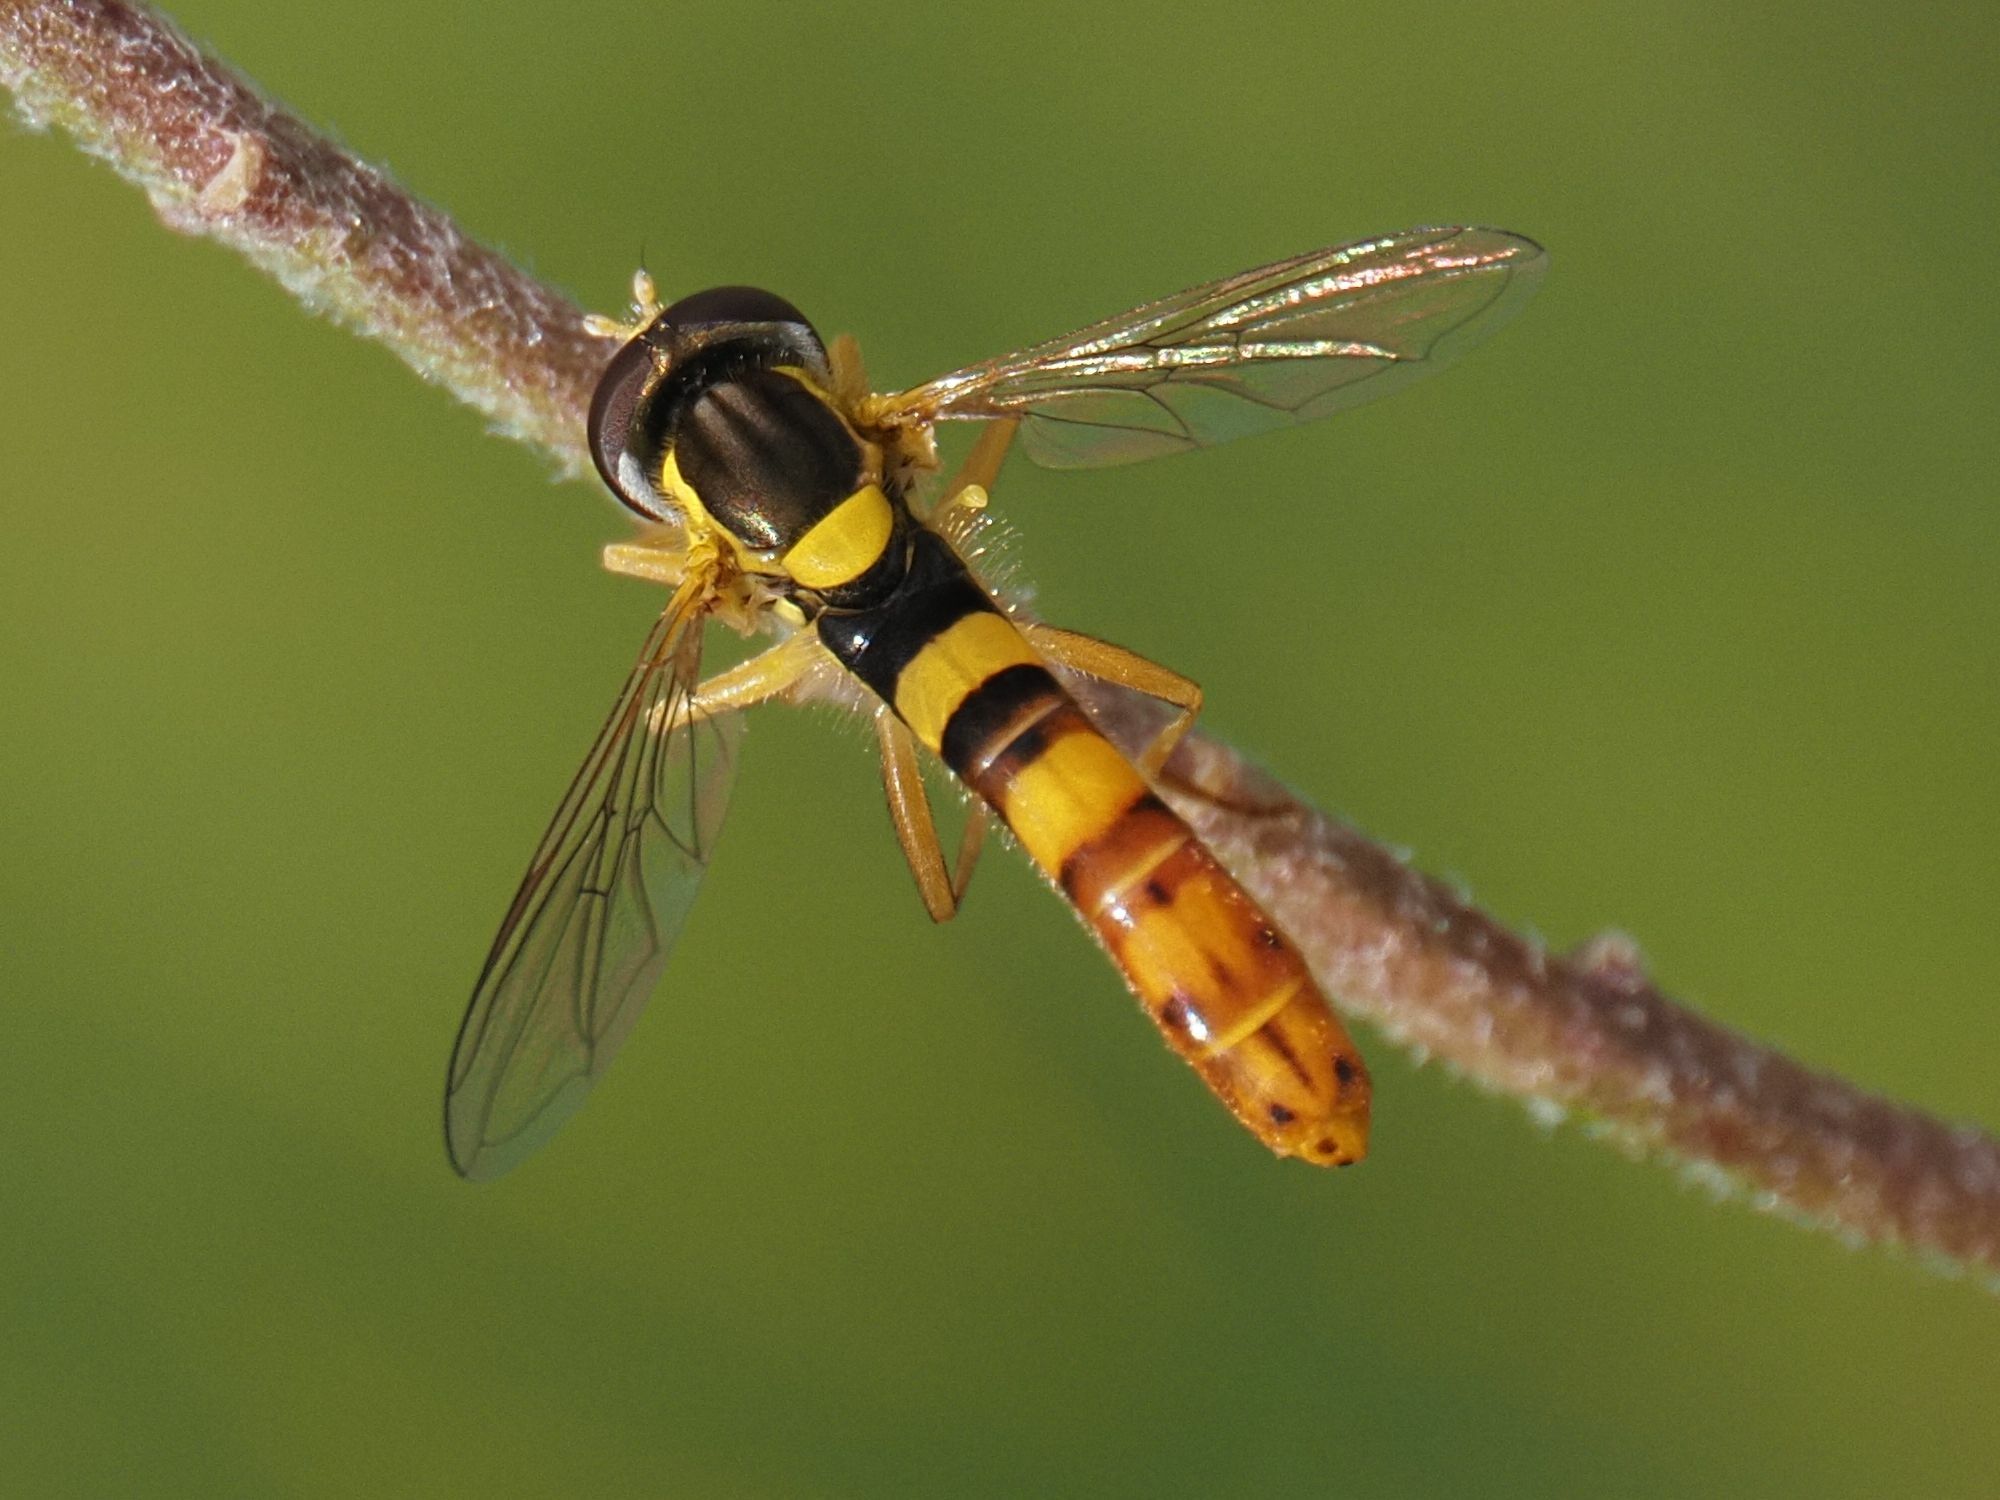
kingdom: Animalia
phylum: Arthropoda
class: Insecta
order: Diptera
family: Syrphidae
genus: Sphaerophoria
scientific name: Sphaerophoria scripta
